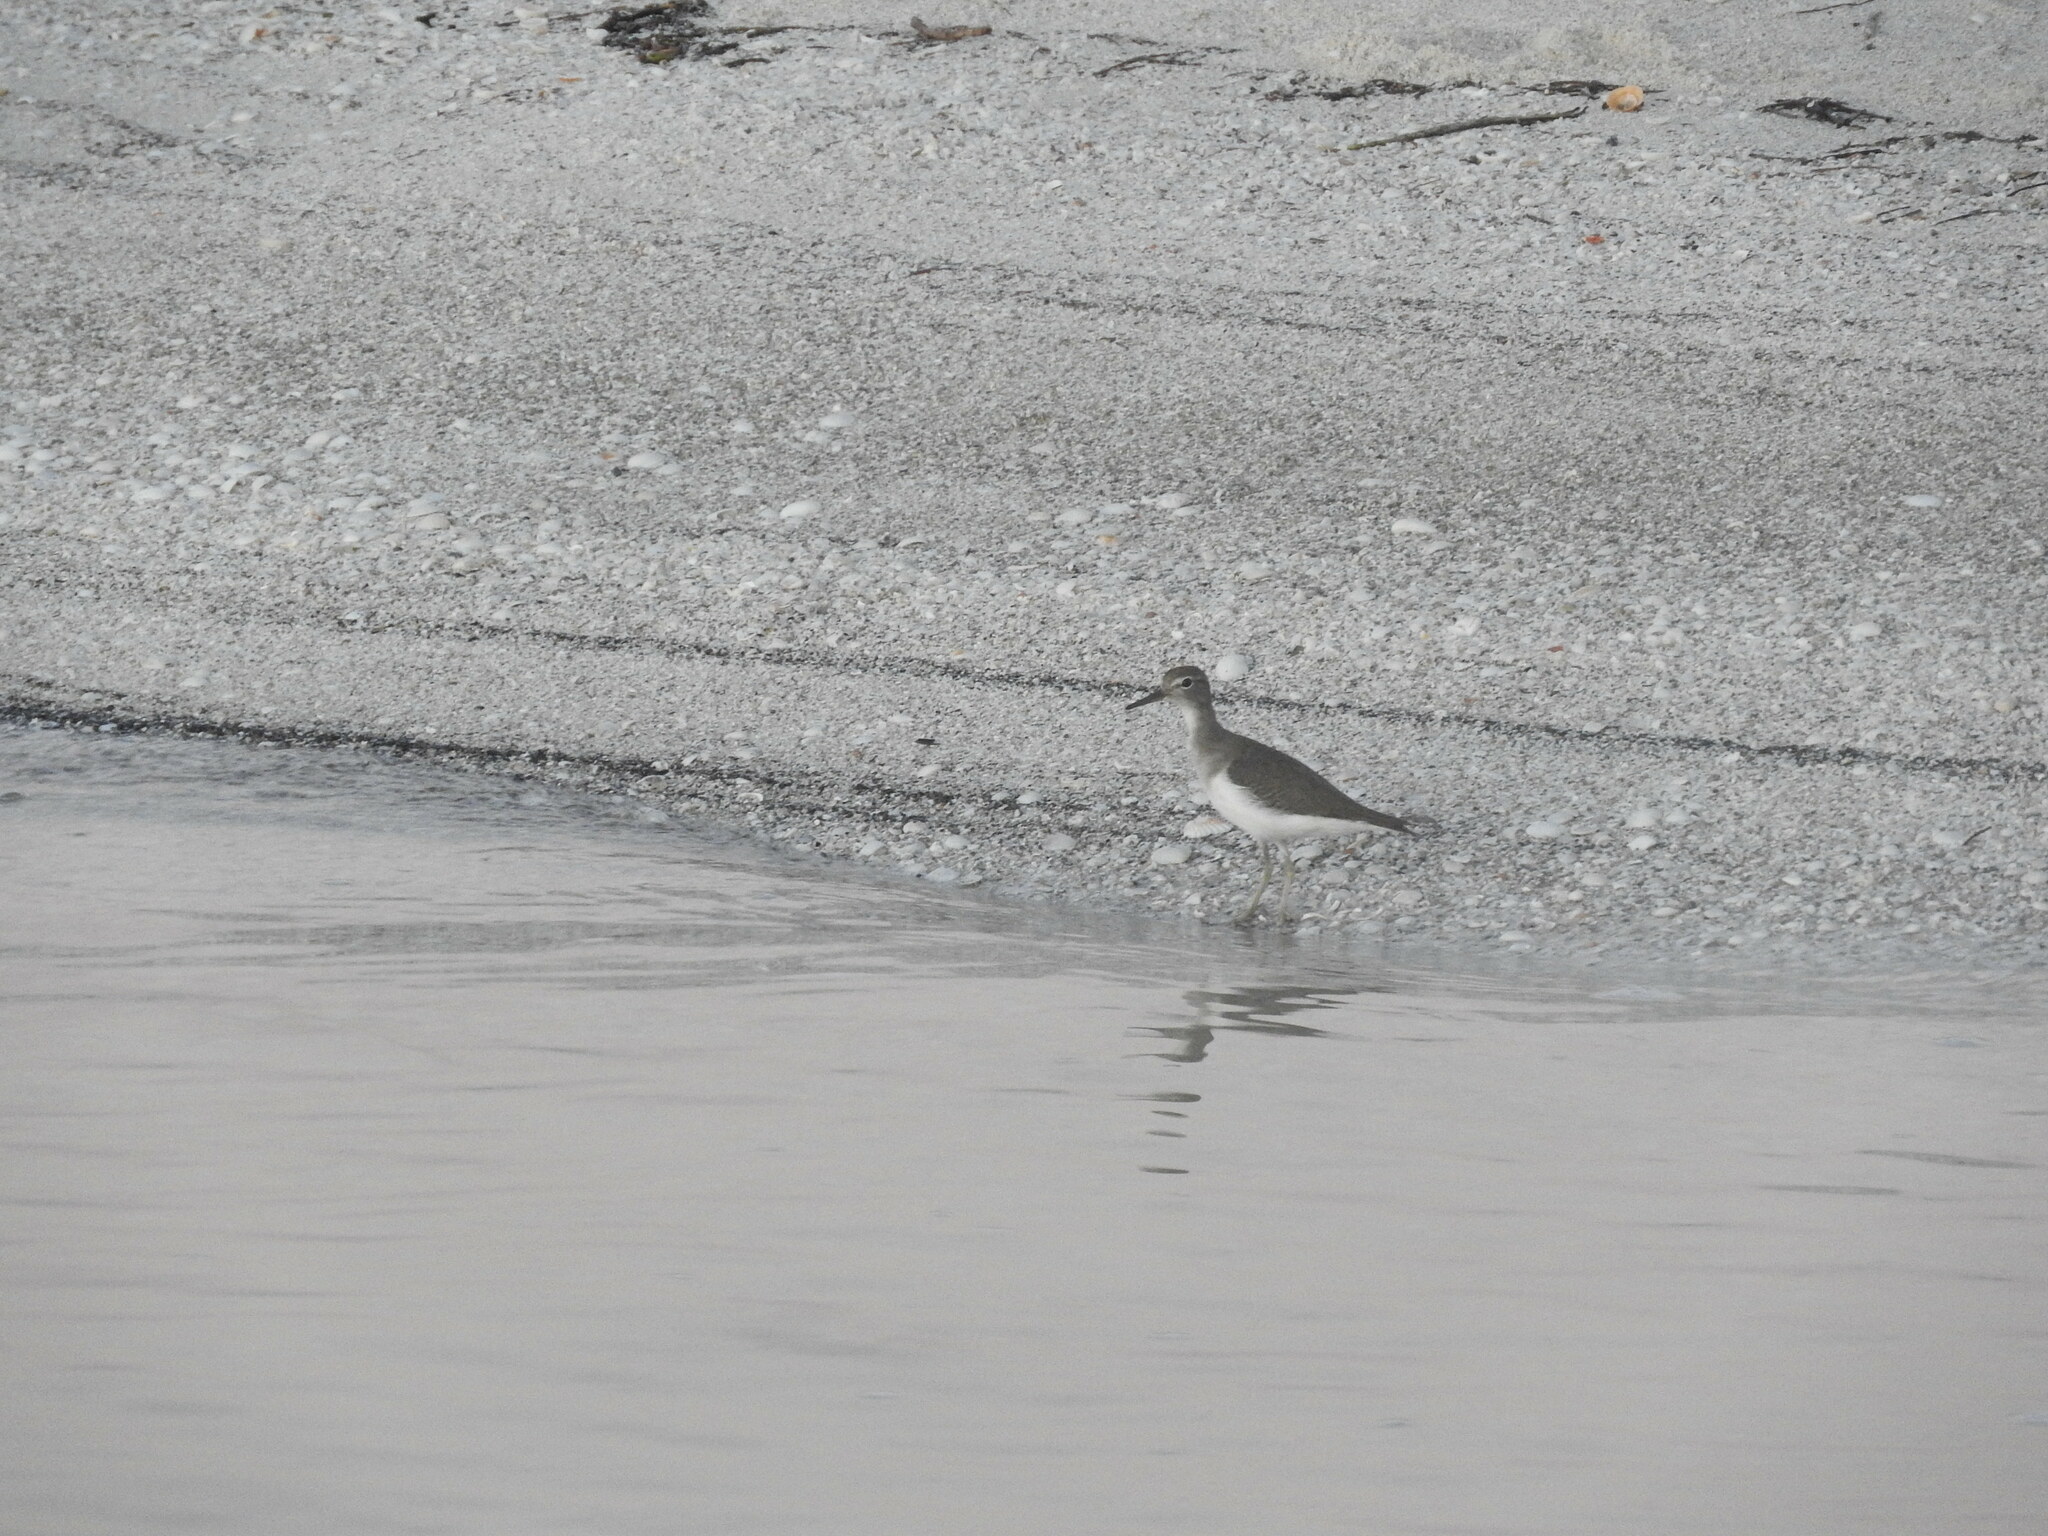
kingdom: Animalia
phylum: Chordata
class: Aves
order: Charadriiformes
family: Scolopacidae
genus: Actitis
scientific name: Actitis macularius
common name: Spotted sandpiper
